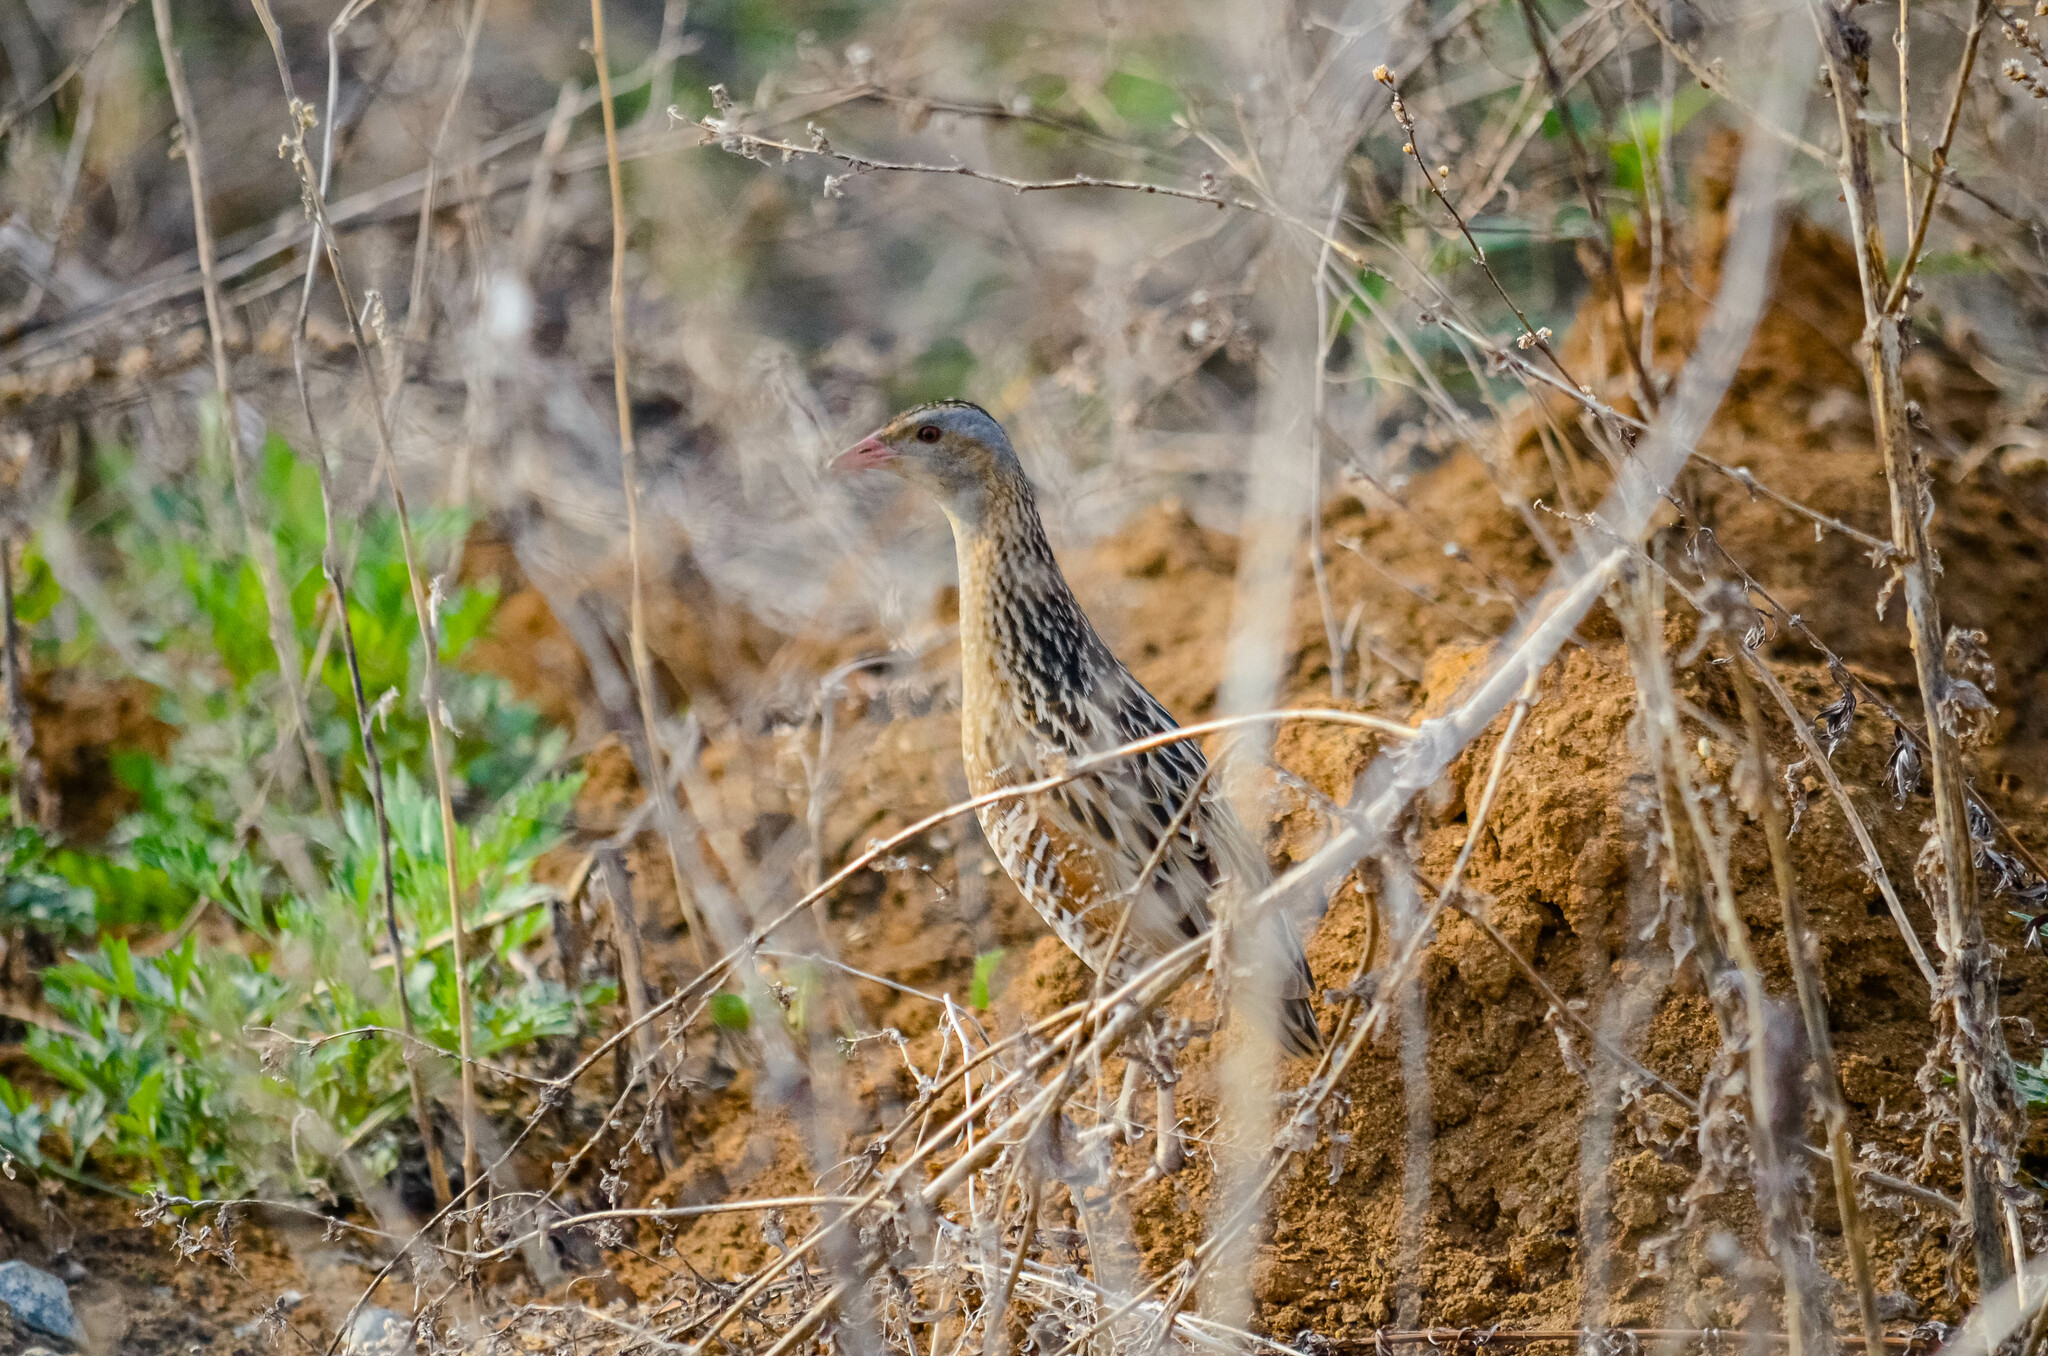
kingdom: Animalia
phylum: Chordata
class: Aves
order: Gruiformes
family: Rallidae
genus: Crex
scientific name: Crex crex
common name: Corn crake
